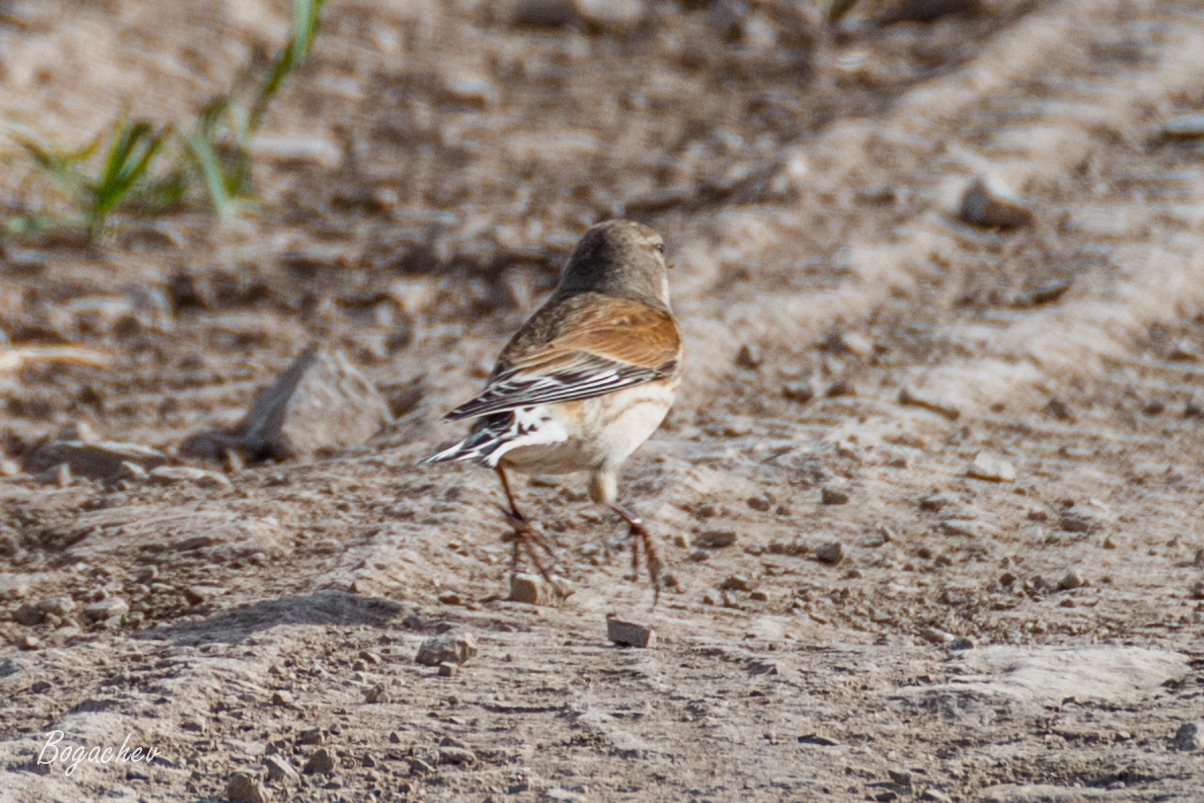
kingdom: Animalia
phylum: Chordata
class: Aves
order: Passeriformes
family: Fringillidae
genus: Linaria
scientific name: Linaria cannabina
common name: Common linnet
